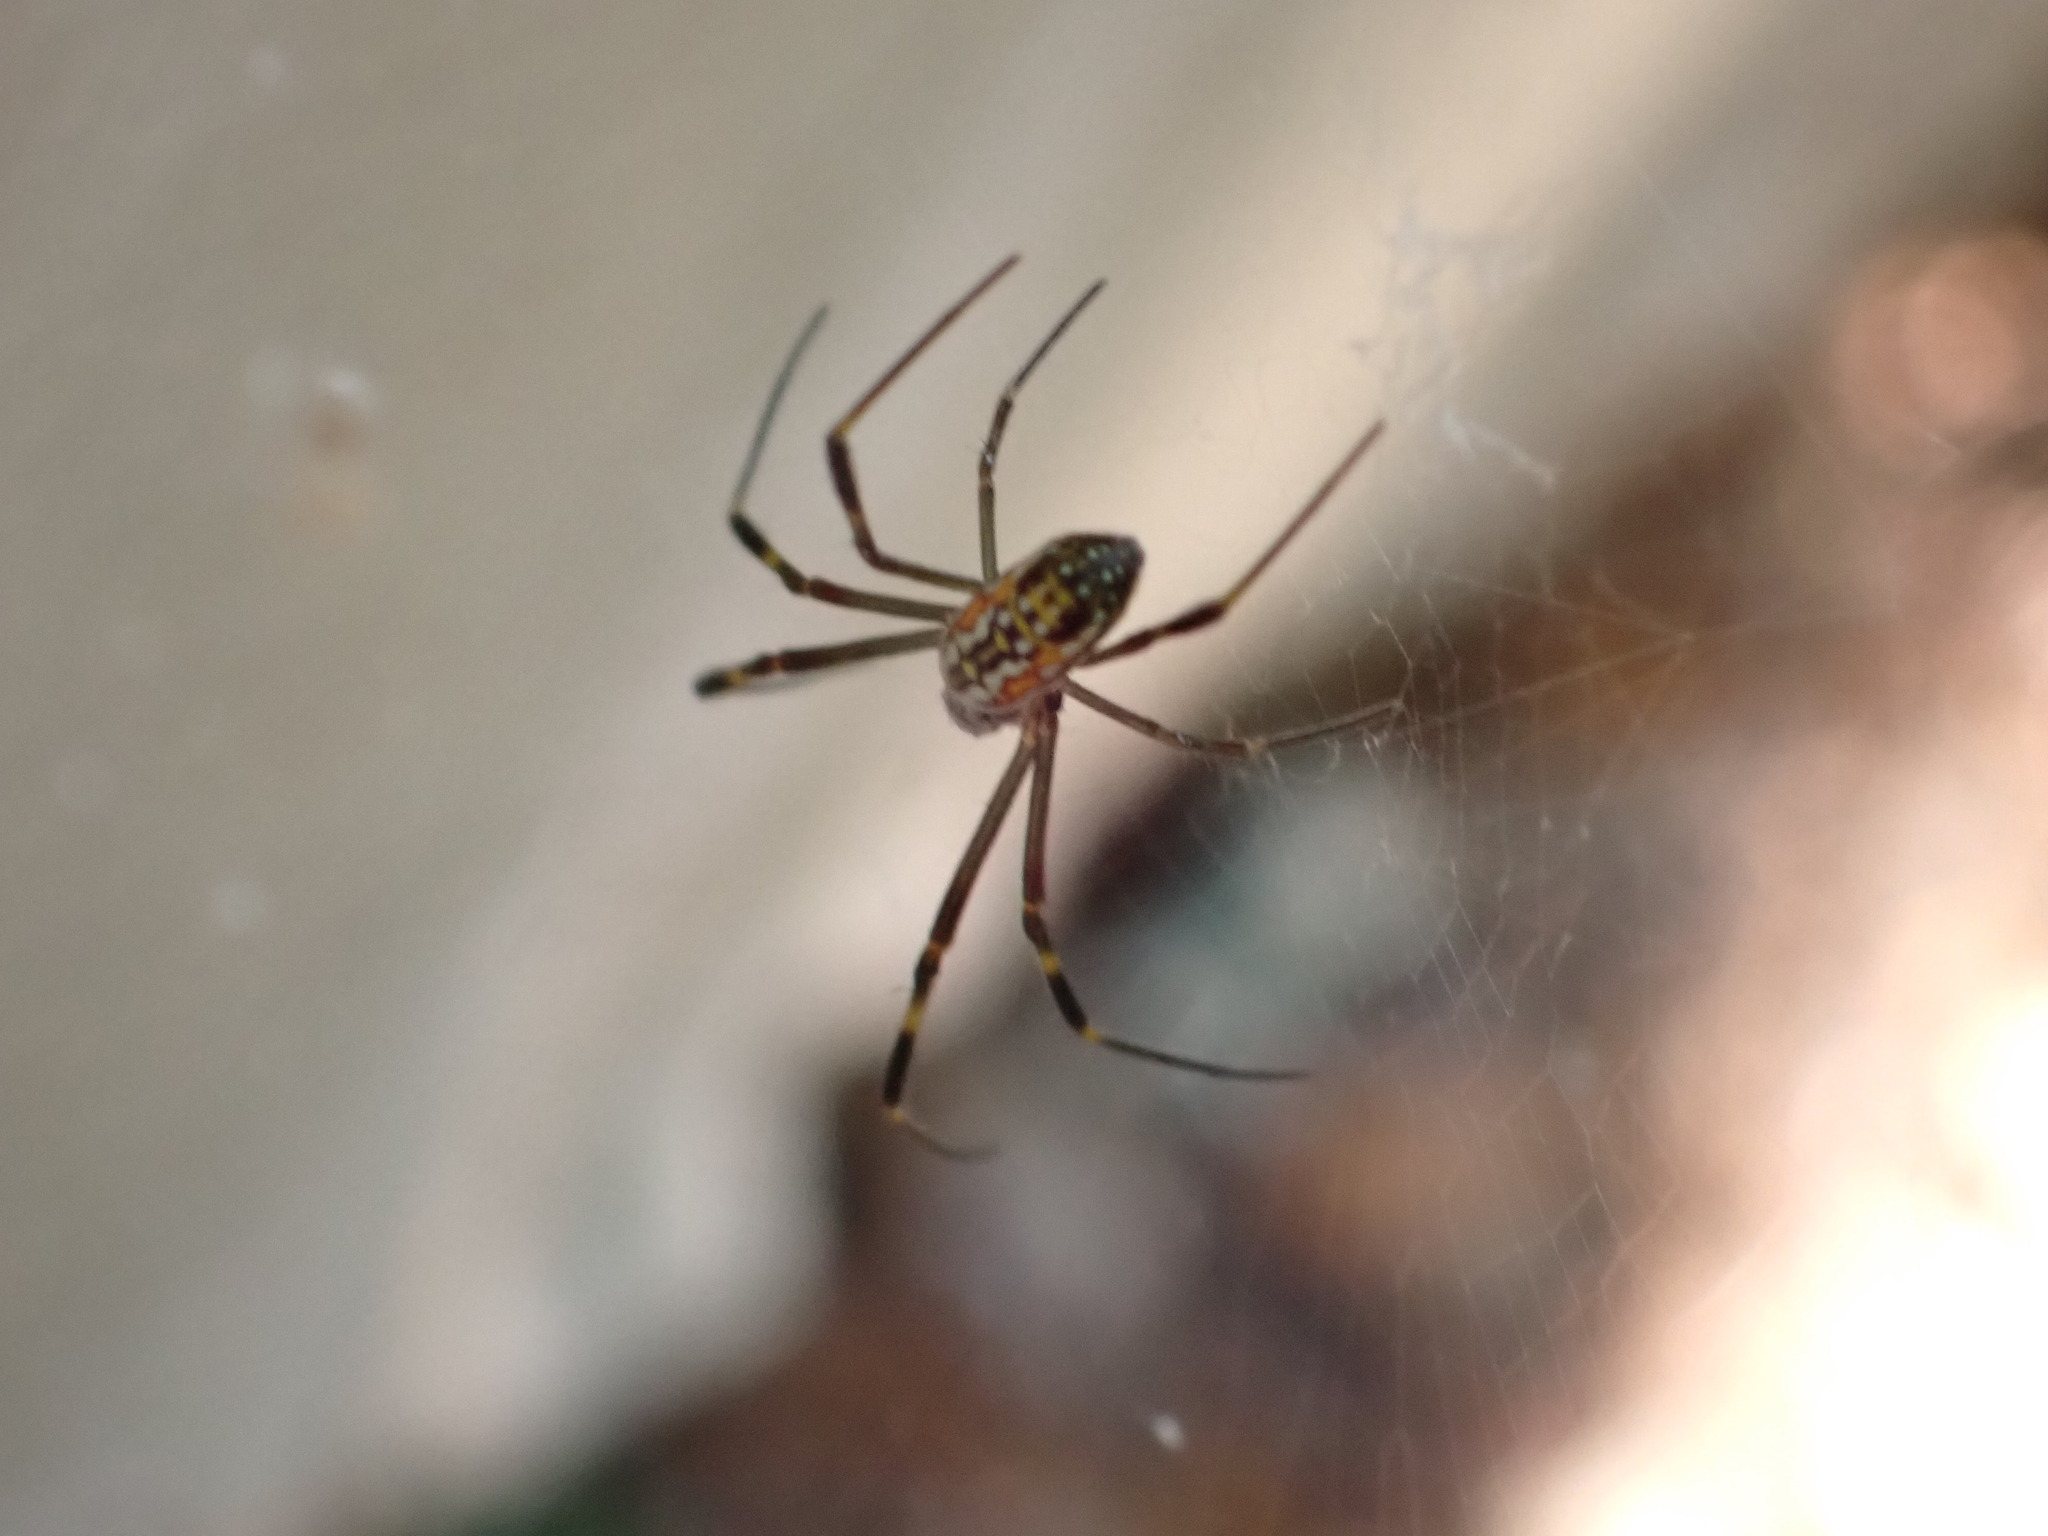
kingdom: Animalia
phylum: Arthropoda
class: Arachnida
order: Araneae
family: Araneidae
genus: Trichonephila
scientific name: Trichonephila clavipes
